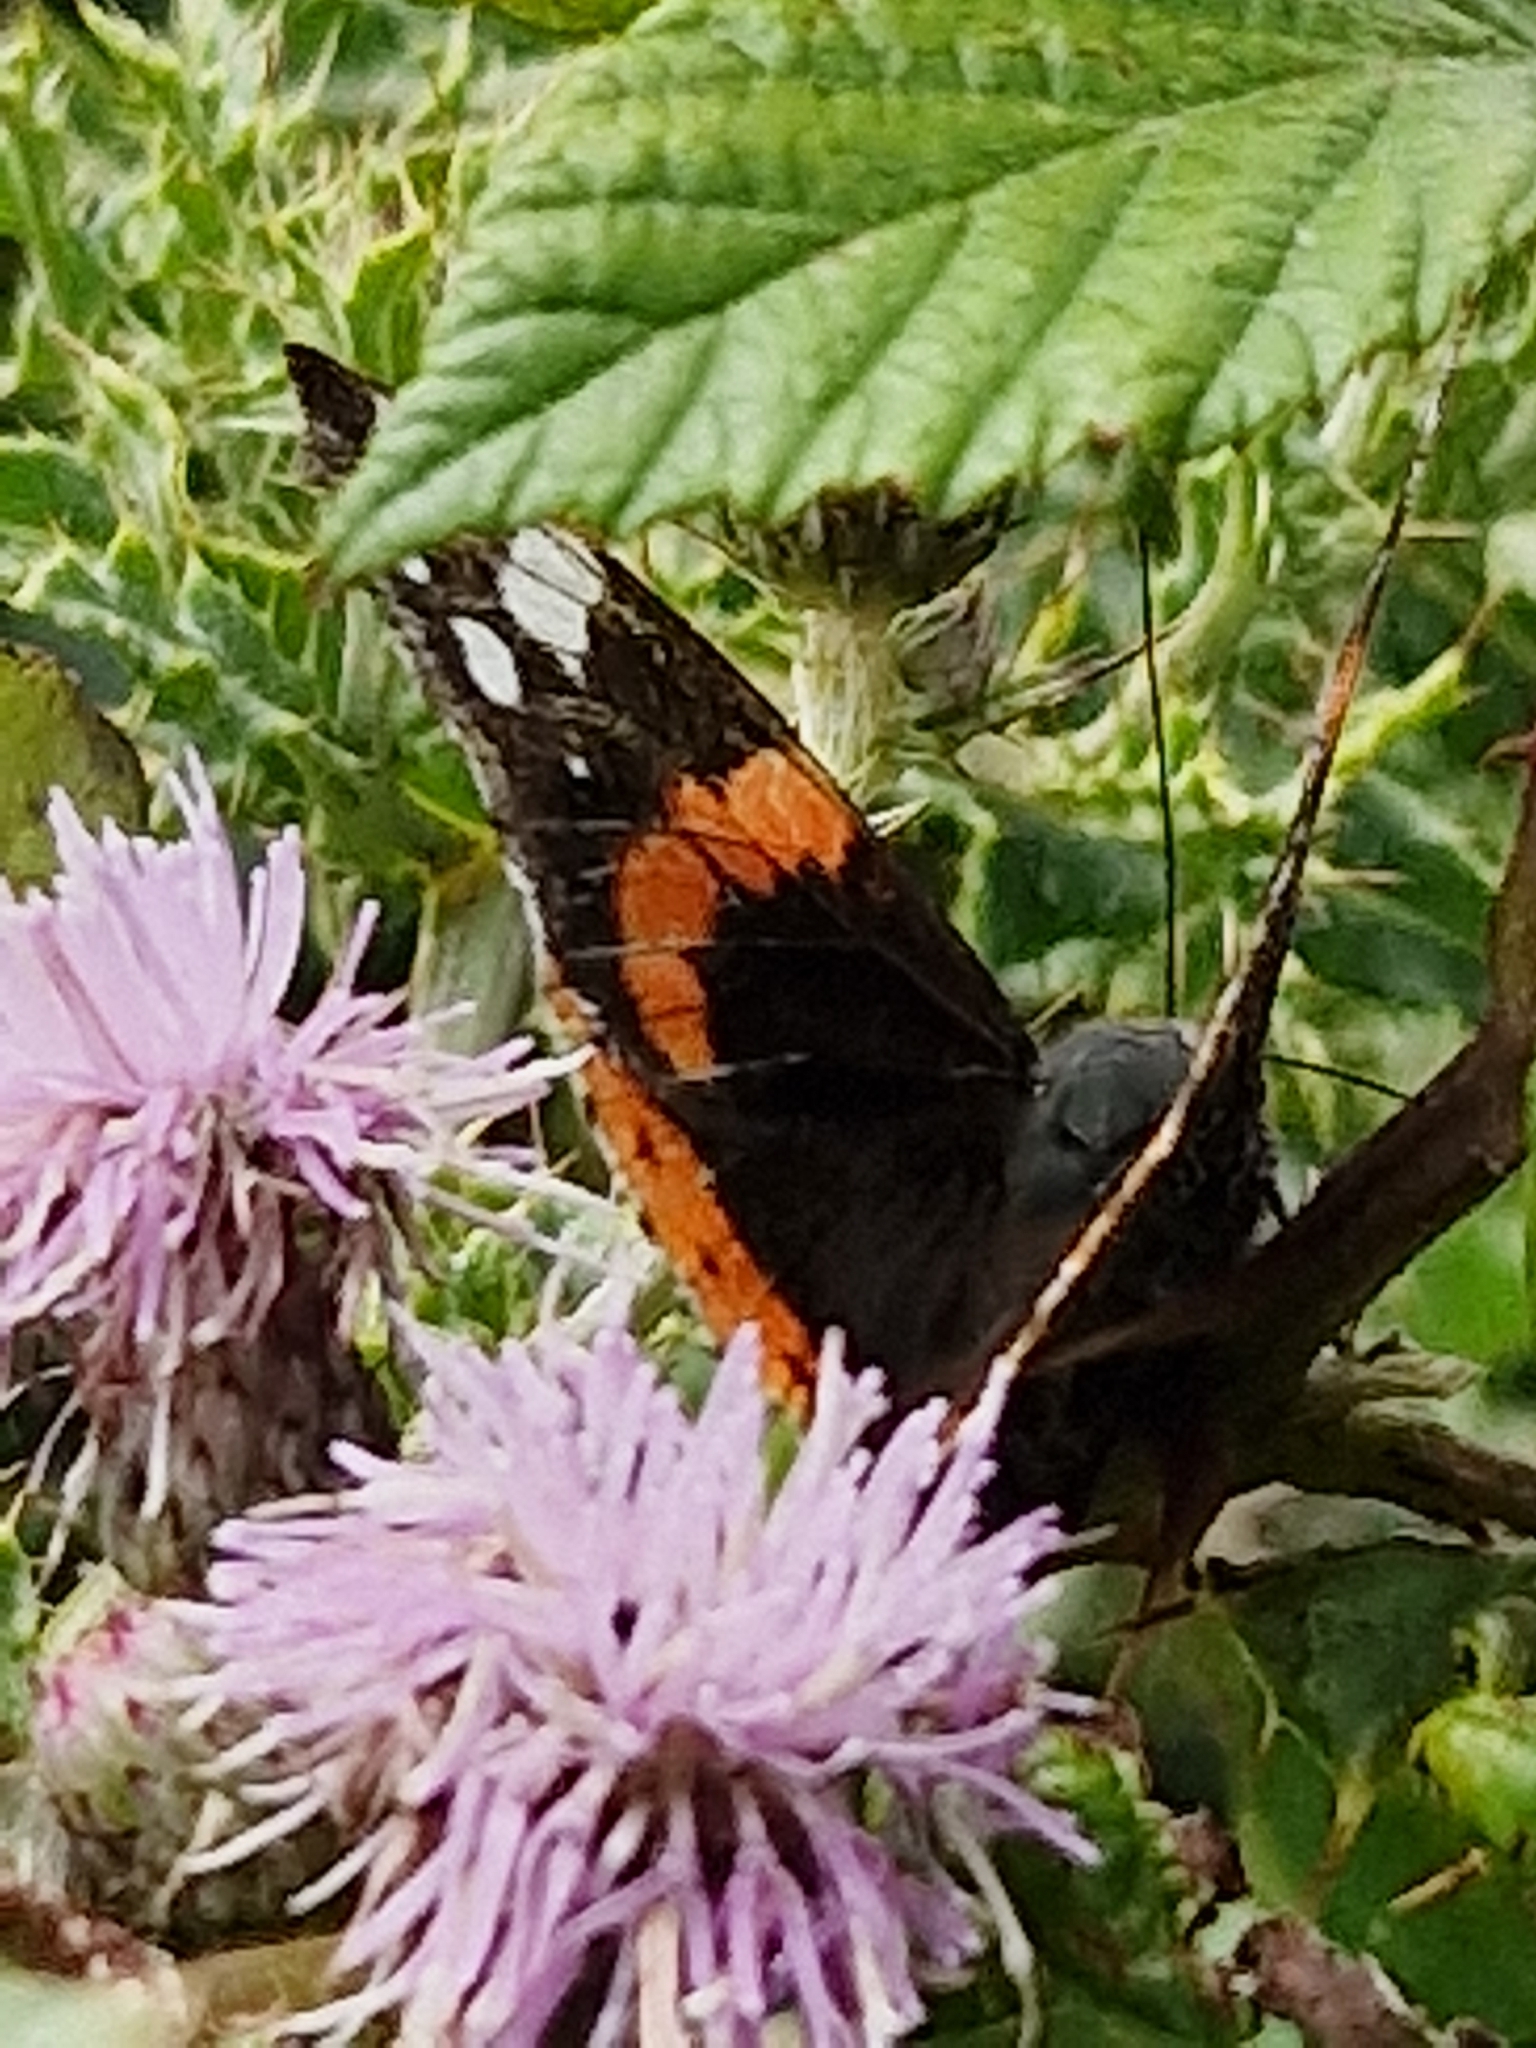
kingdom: Animalia
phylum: Arthropoda
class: Insecta
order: Lepidoptera
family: Nymphalidae
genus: Vanessa
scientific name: Vanessa atalanta
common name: Red admiral
